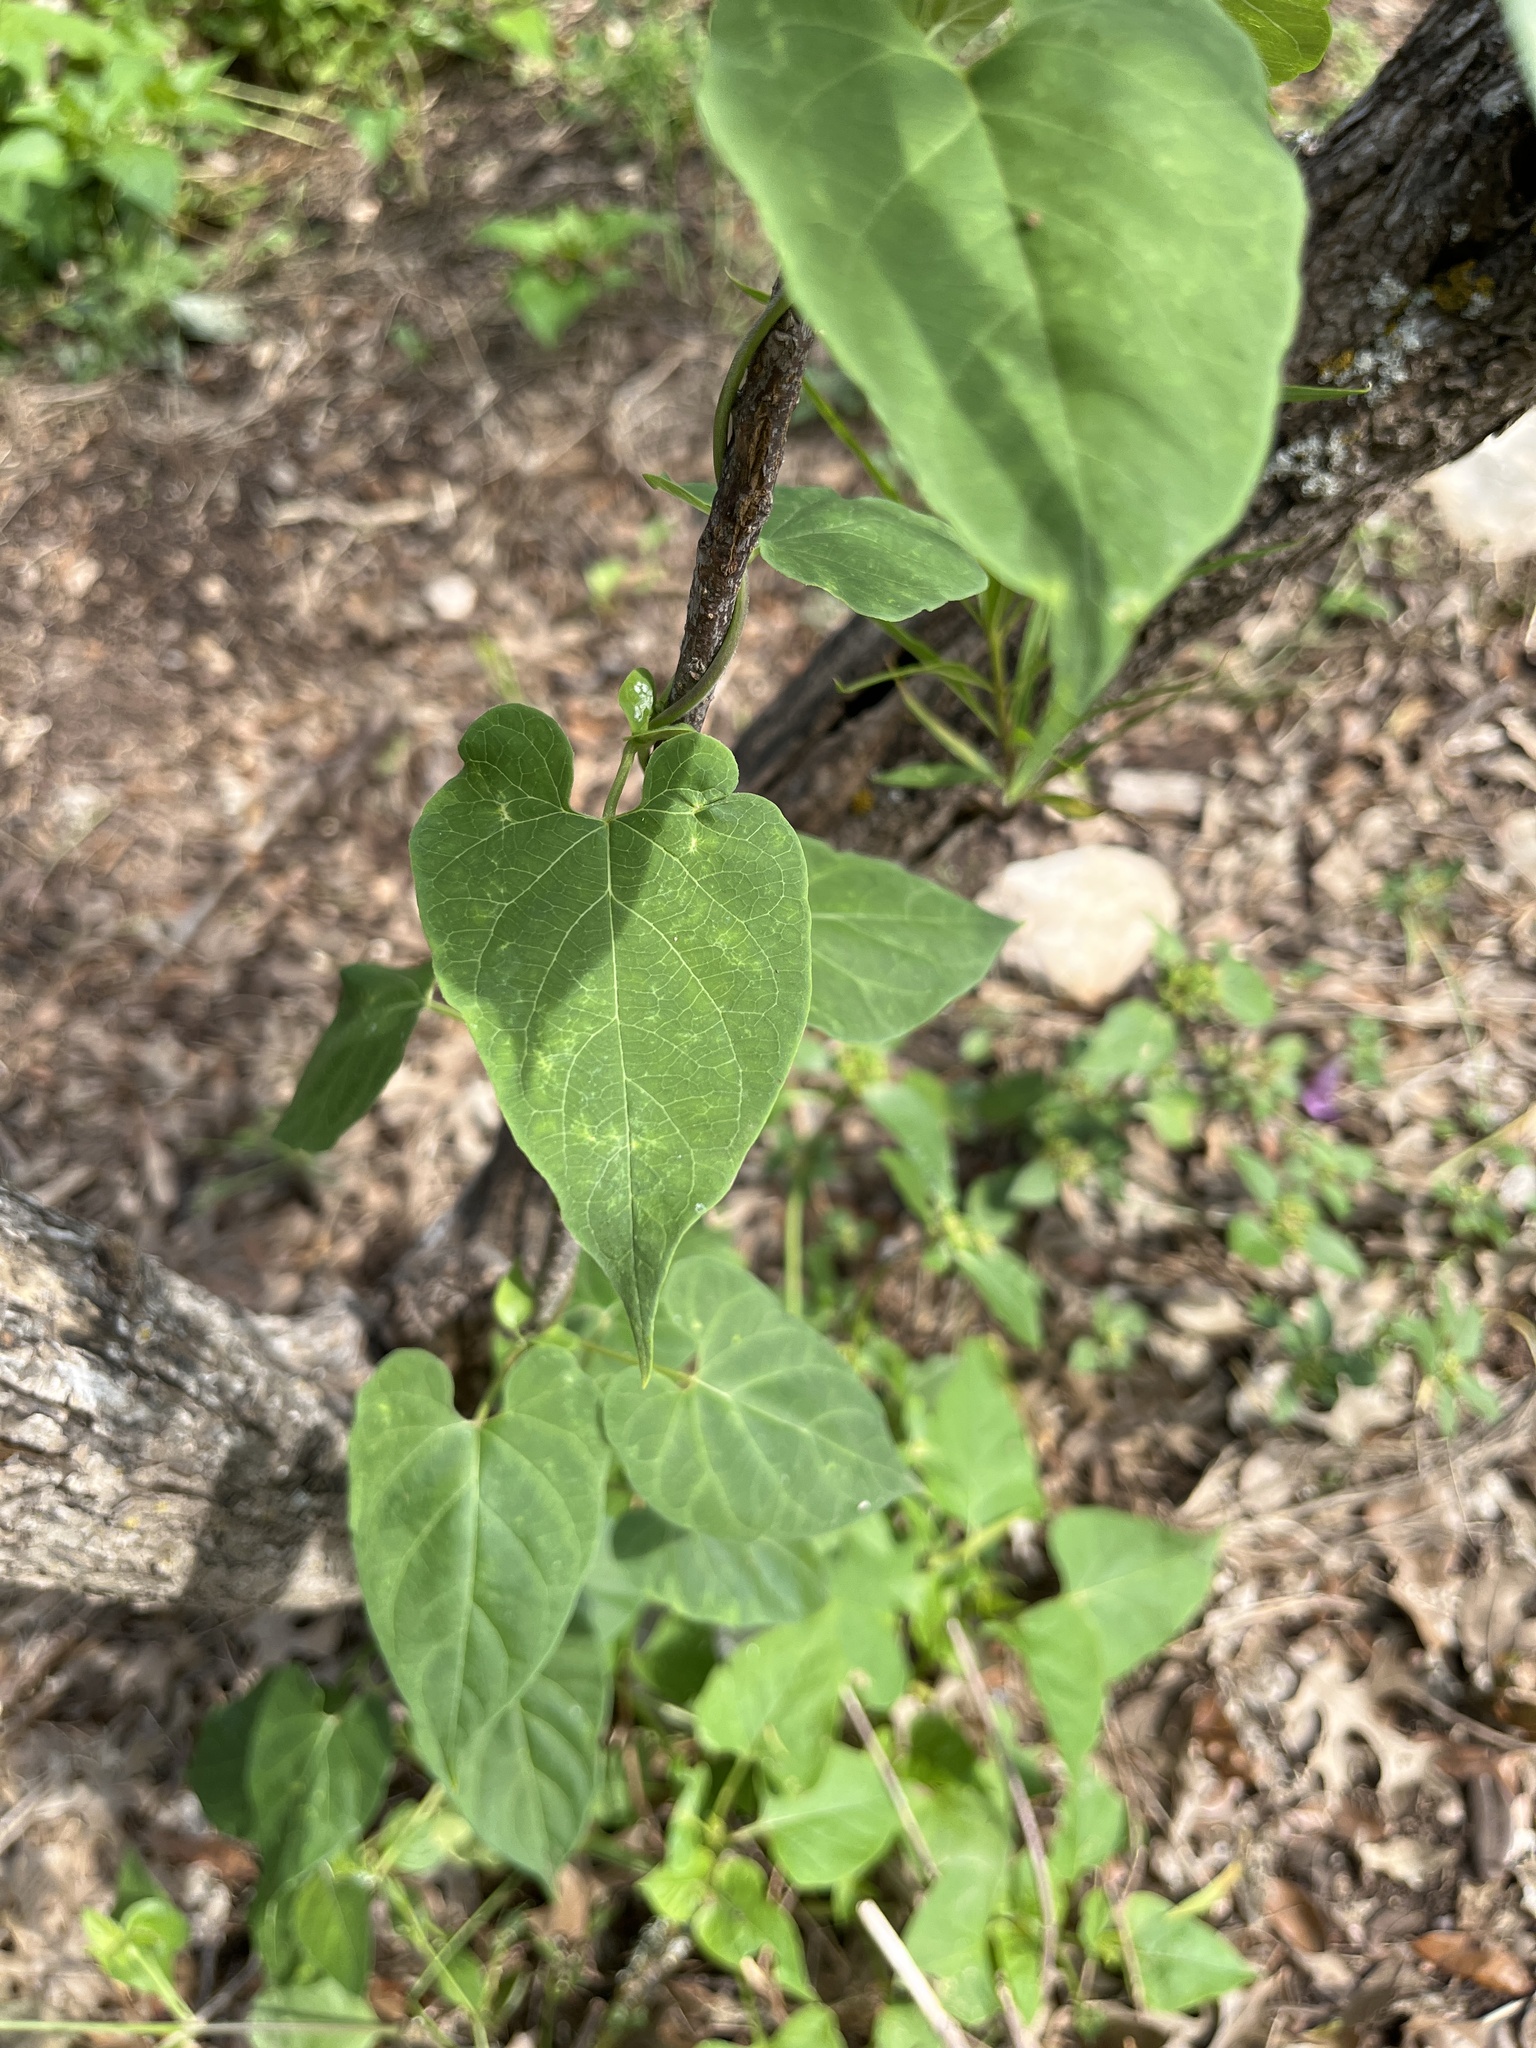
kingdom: Plantae
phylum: Tracheophyta
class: Magnoliopsida
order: Gentianales
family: Apocynaceae
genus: Cynanchum
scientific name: Cynanchum racemosum
